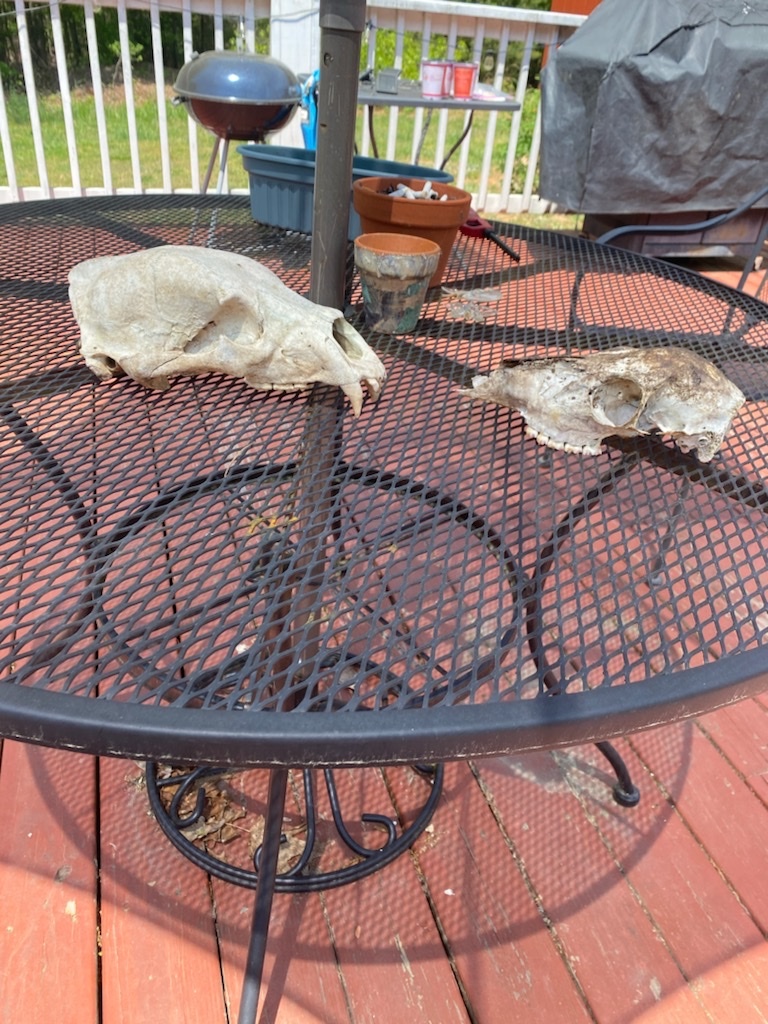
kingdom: Animalia
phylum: Chordata
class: Mammalia
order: Carnivora
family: Ursidae
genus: Ursus
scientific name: Ursus americanus
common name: American black bear
